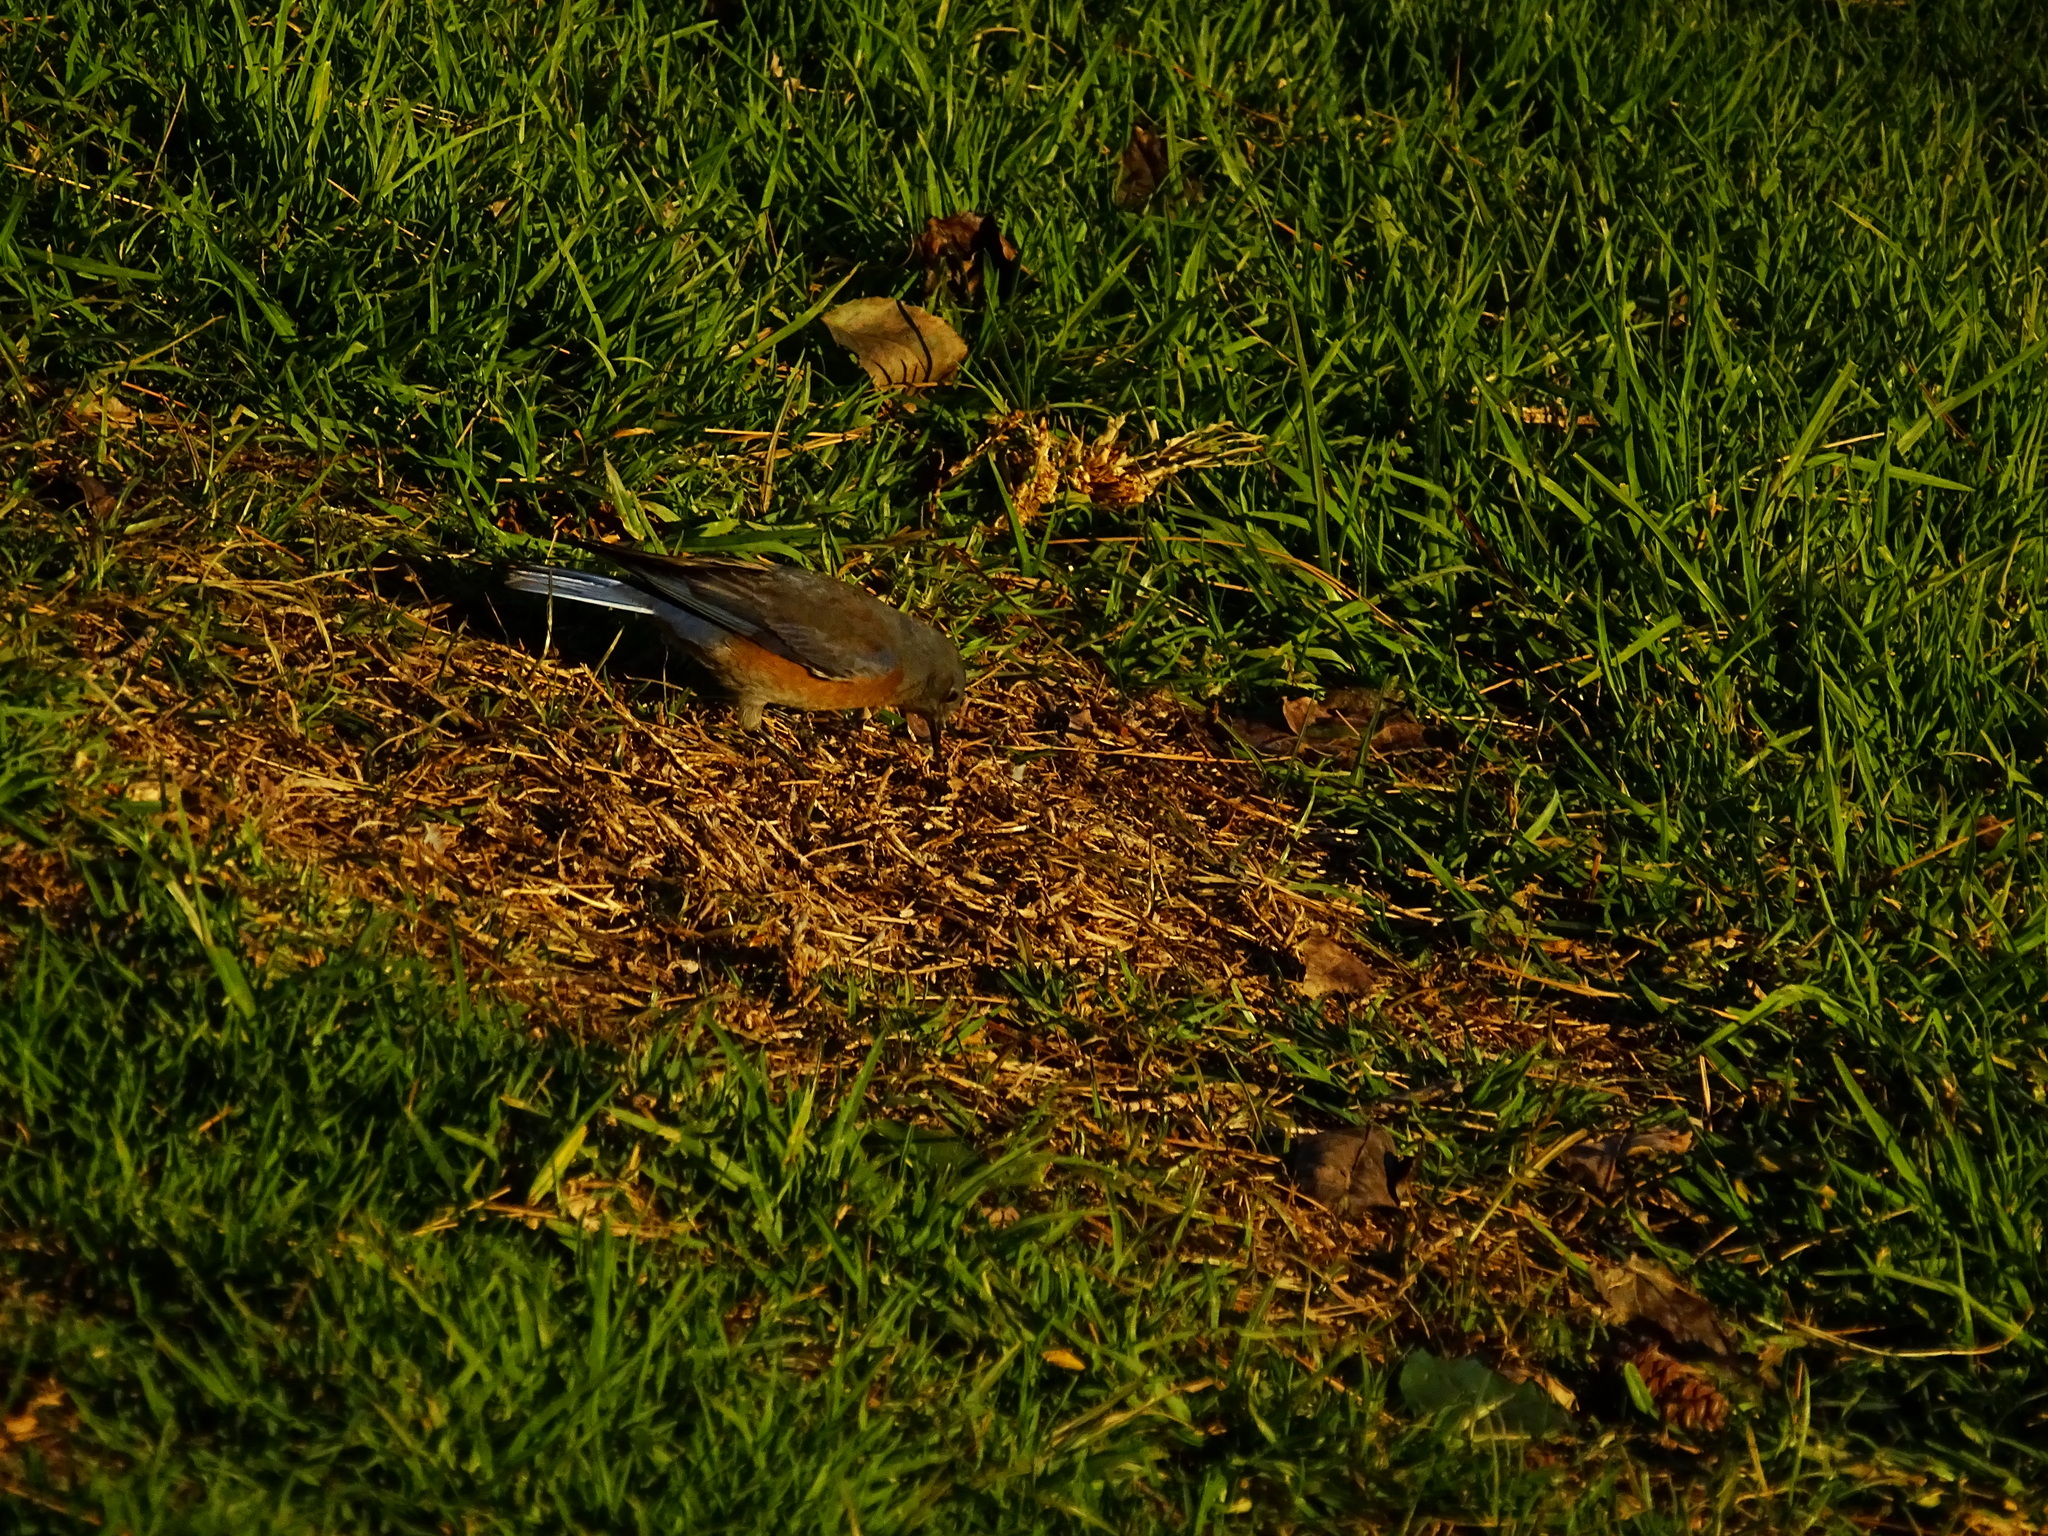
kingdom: Animalia
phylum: Chordata
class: Aves
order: Passeriformes
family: Turdidae
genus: Sialia
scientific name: Sialia mexicana
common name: Western bluebird
